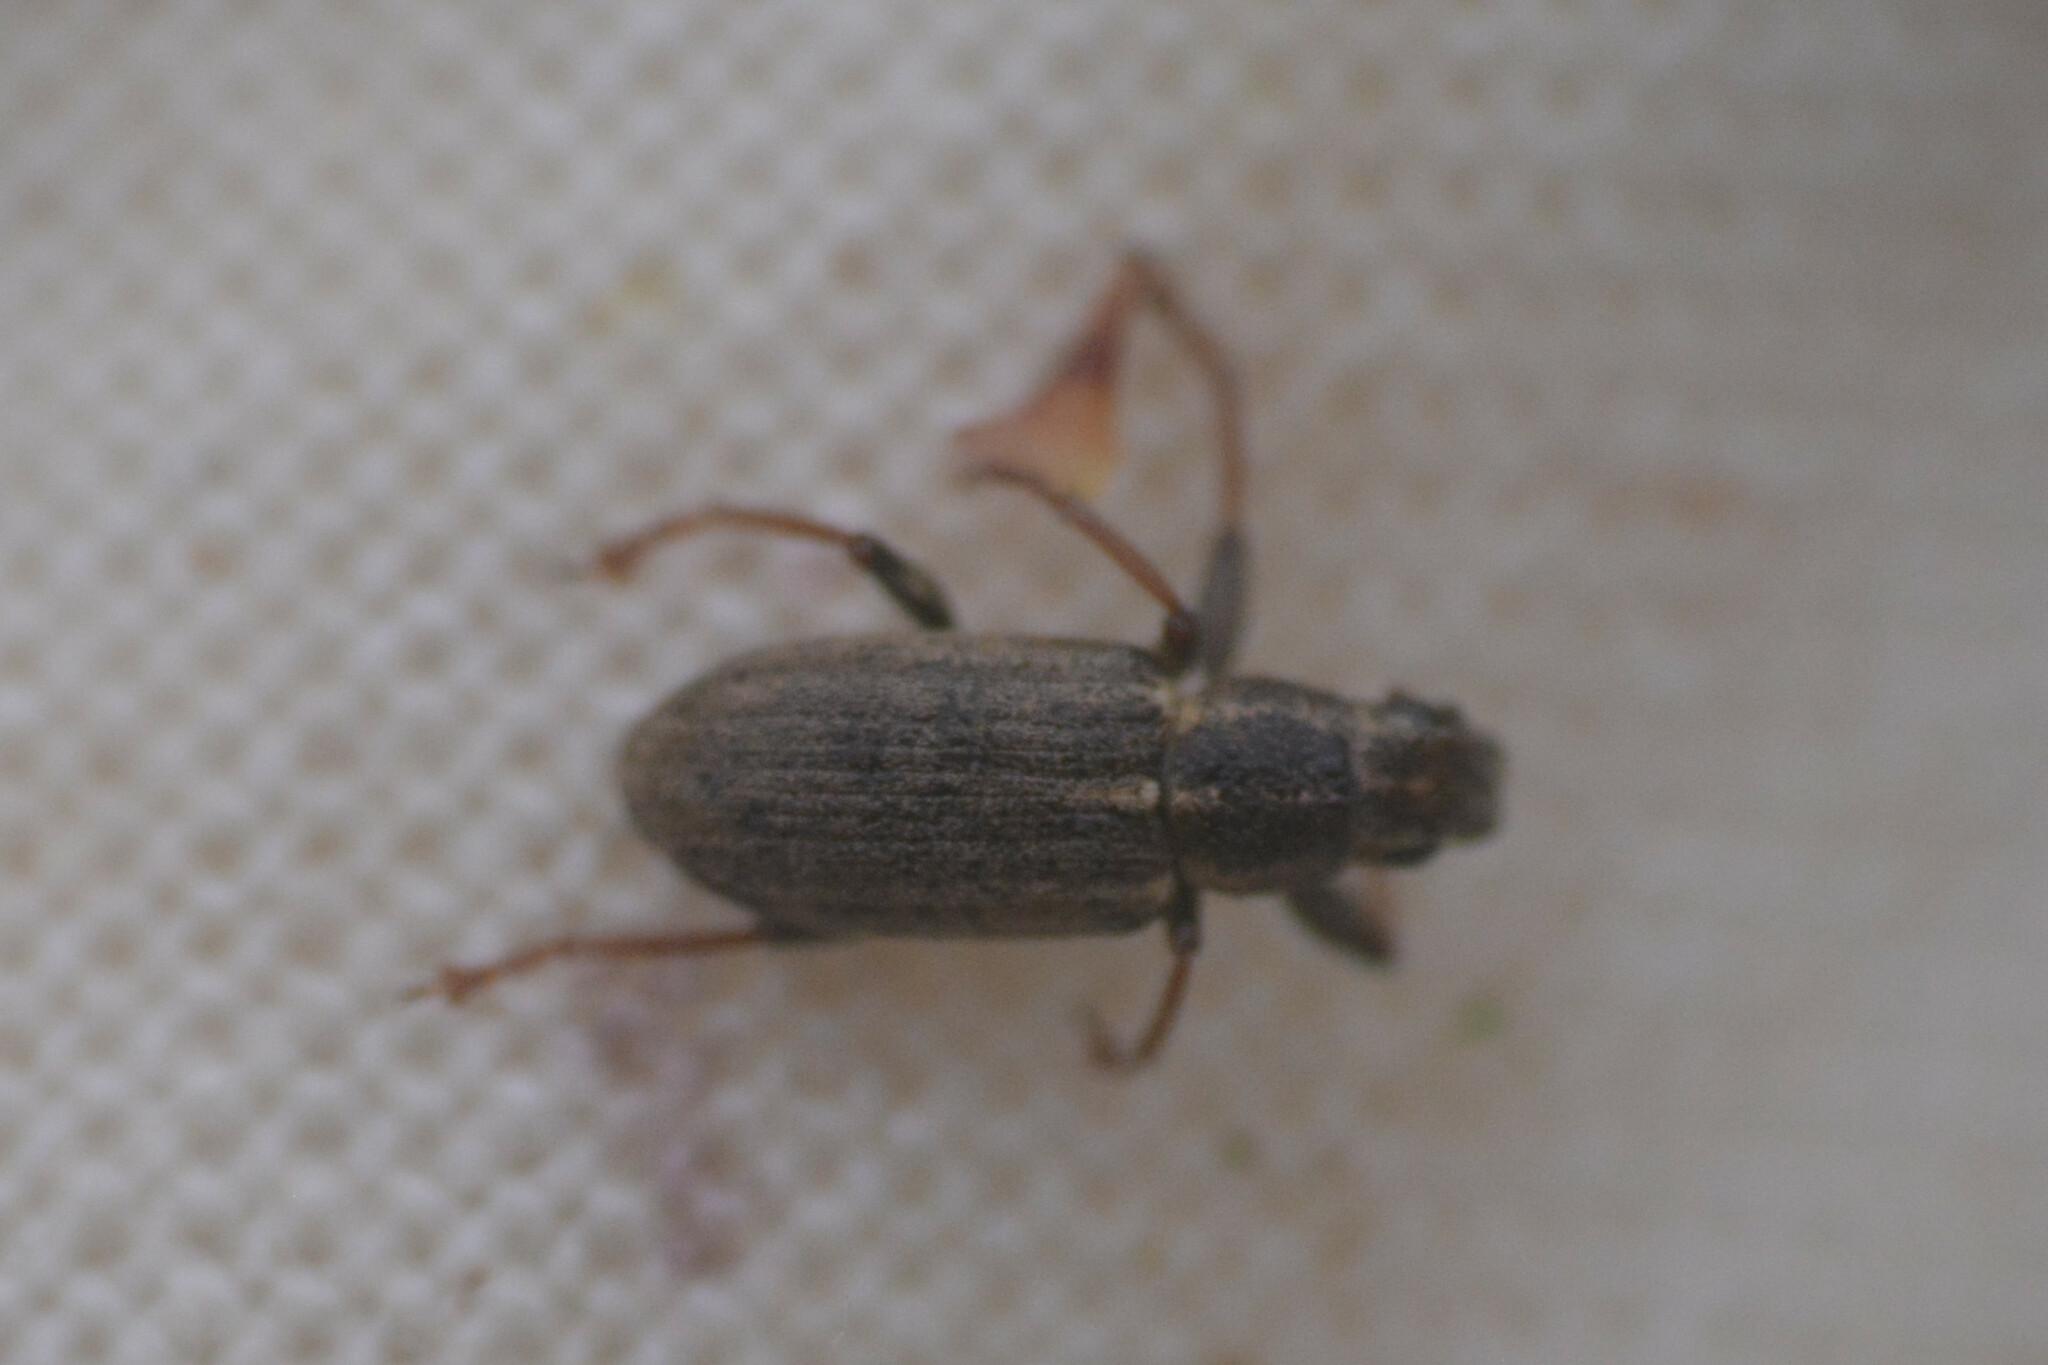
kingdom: Animalia
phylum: Arthropoda
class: Insecta
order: Coleoptera
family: Curculionidae
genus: Sitona
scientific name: Sitona lineatus
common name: Weevil
